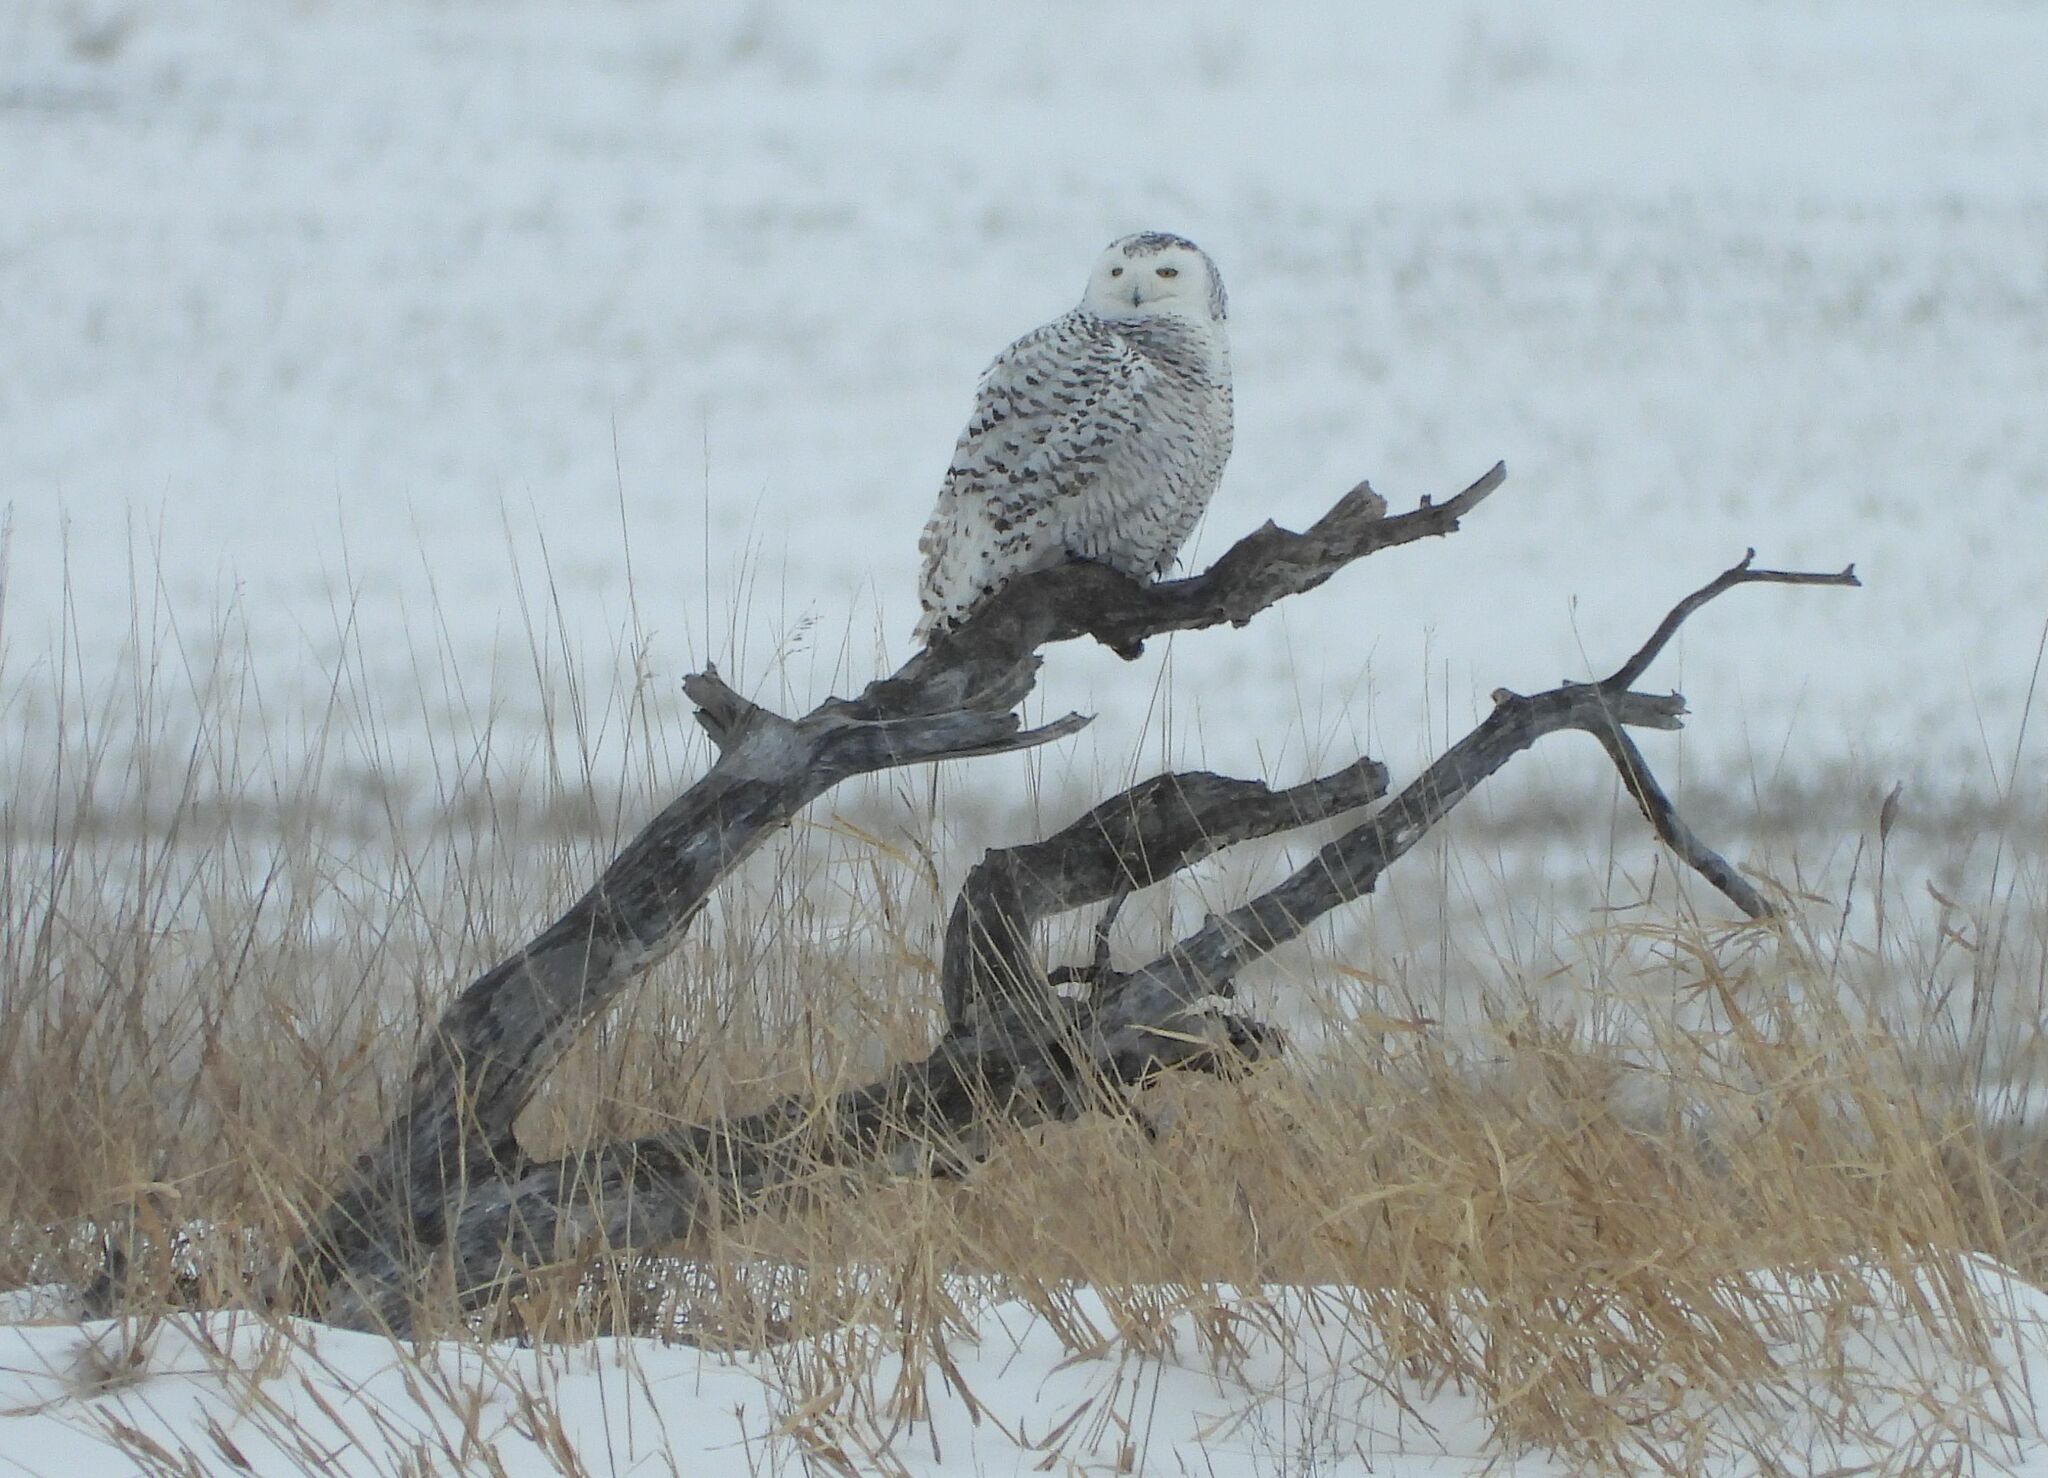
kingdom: Animalia
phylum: Chordata
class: Aves
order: Strigiformes
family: Strigidae
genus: Bubo
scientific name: Bubo scandiacus
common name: Snowy owl
